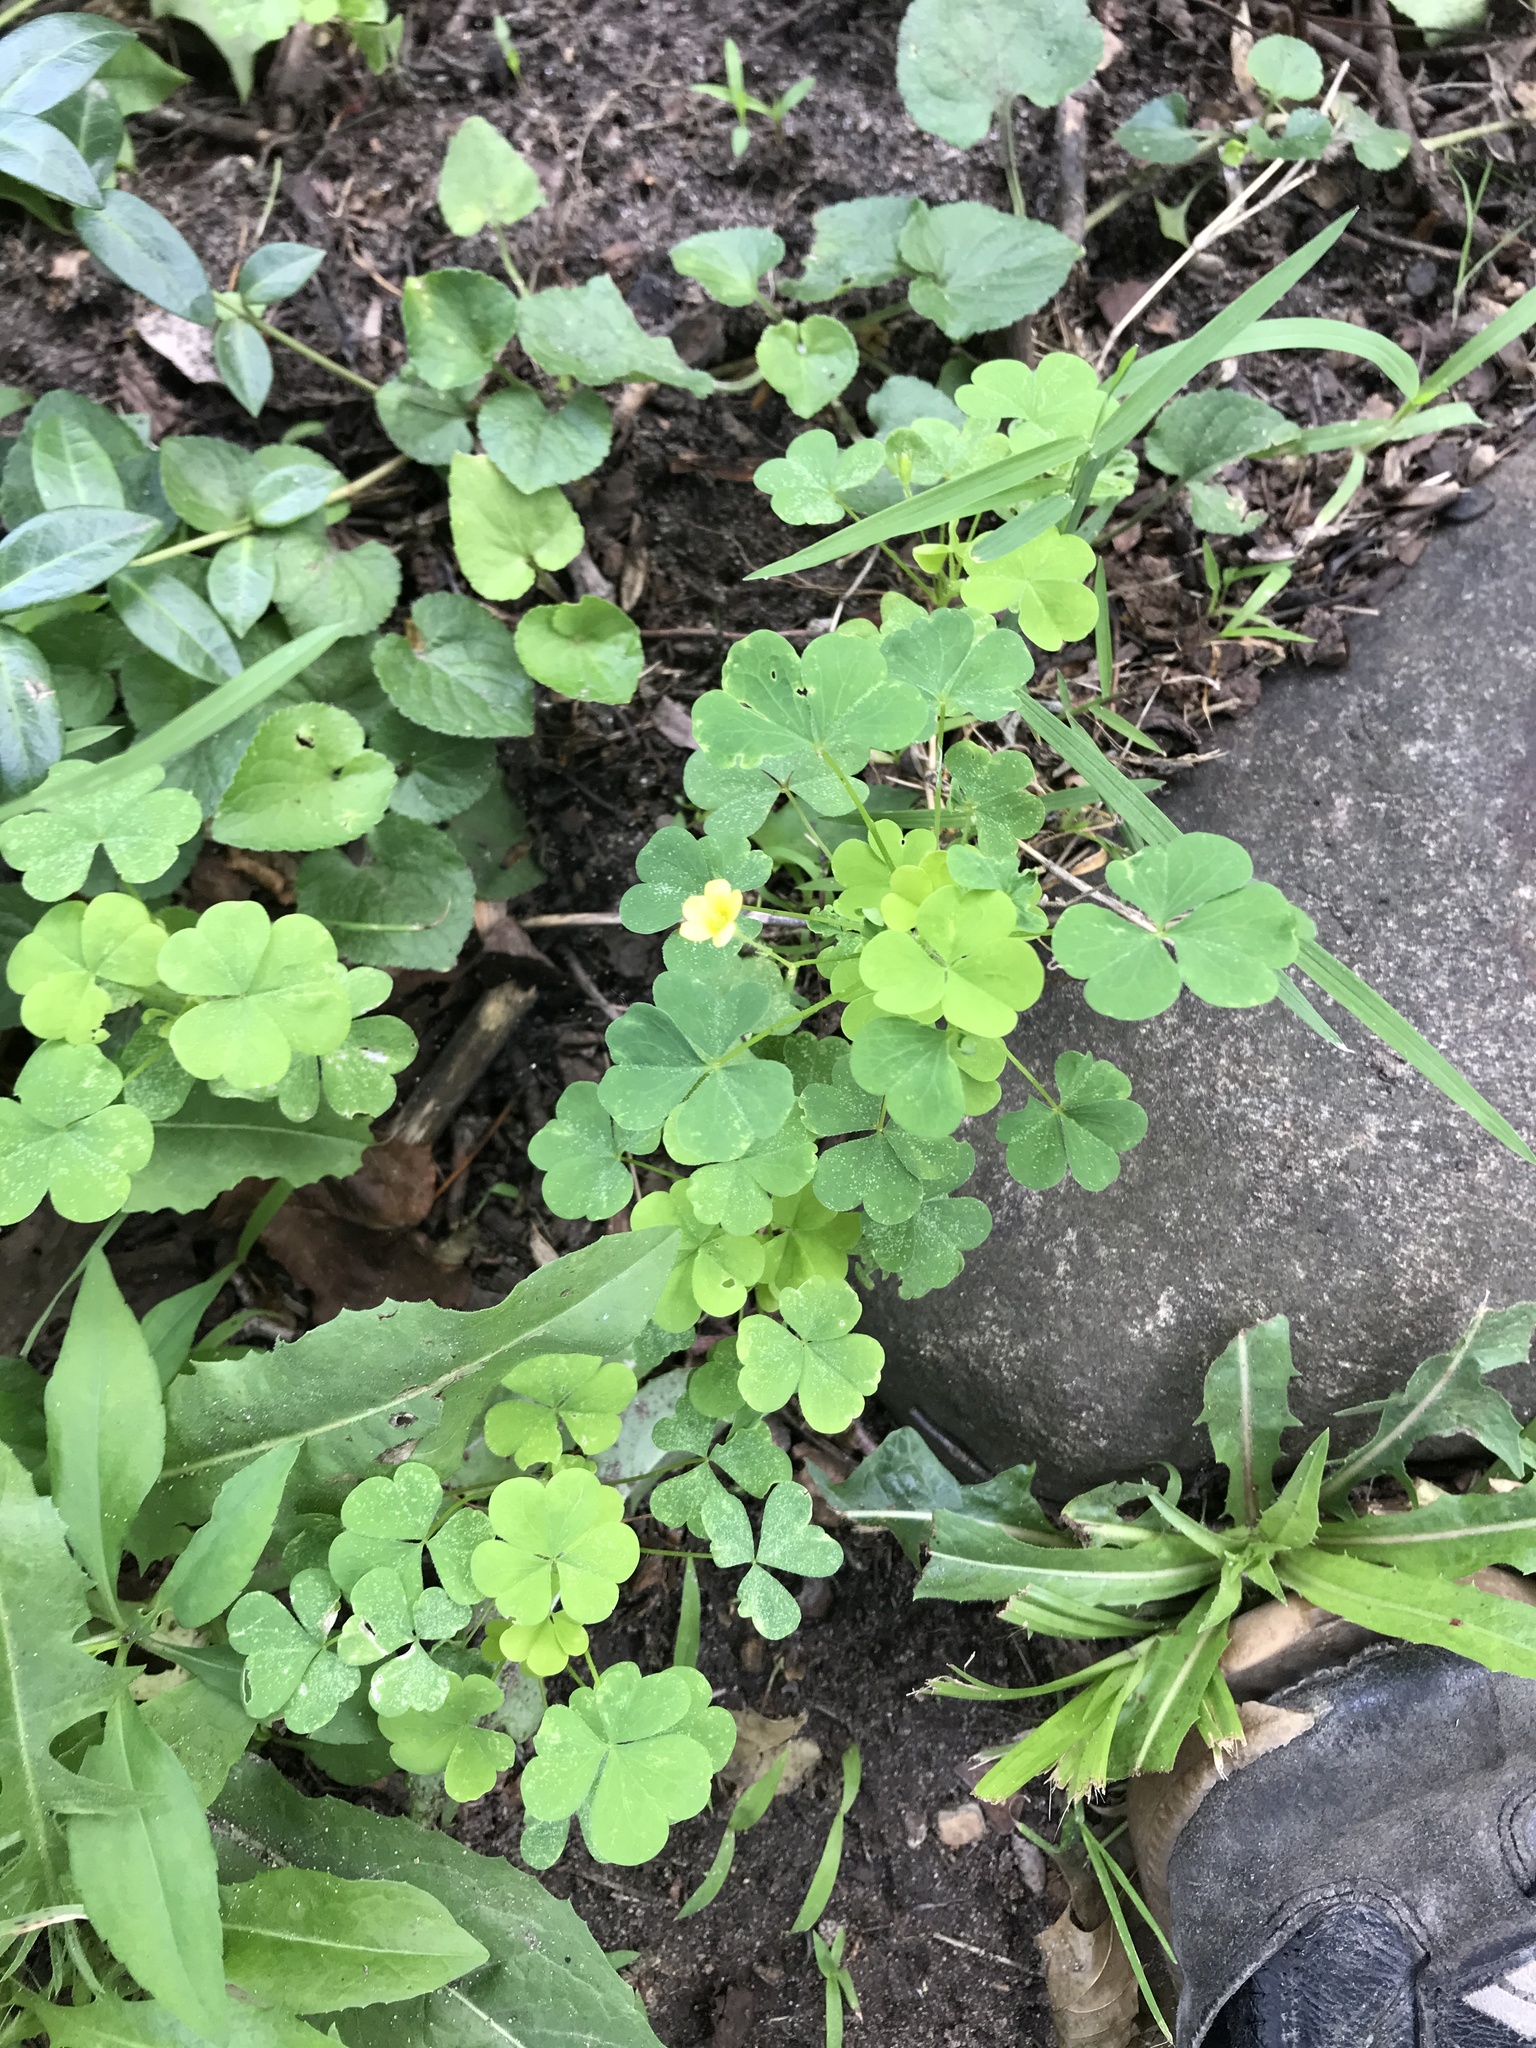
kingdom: Plantae
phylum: Tracheophyta
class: Magnoliopsida
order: Oxalidales
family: Oxalidaceae
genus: Oxalis
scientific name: Oxalis
